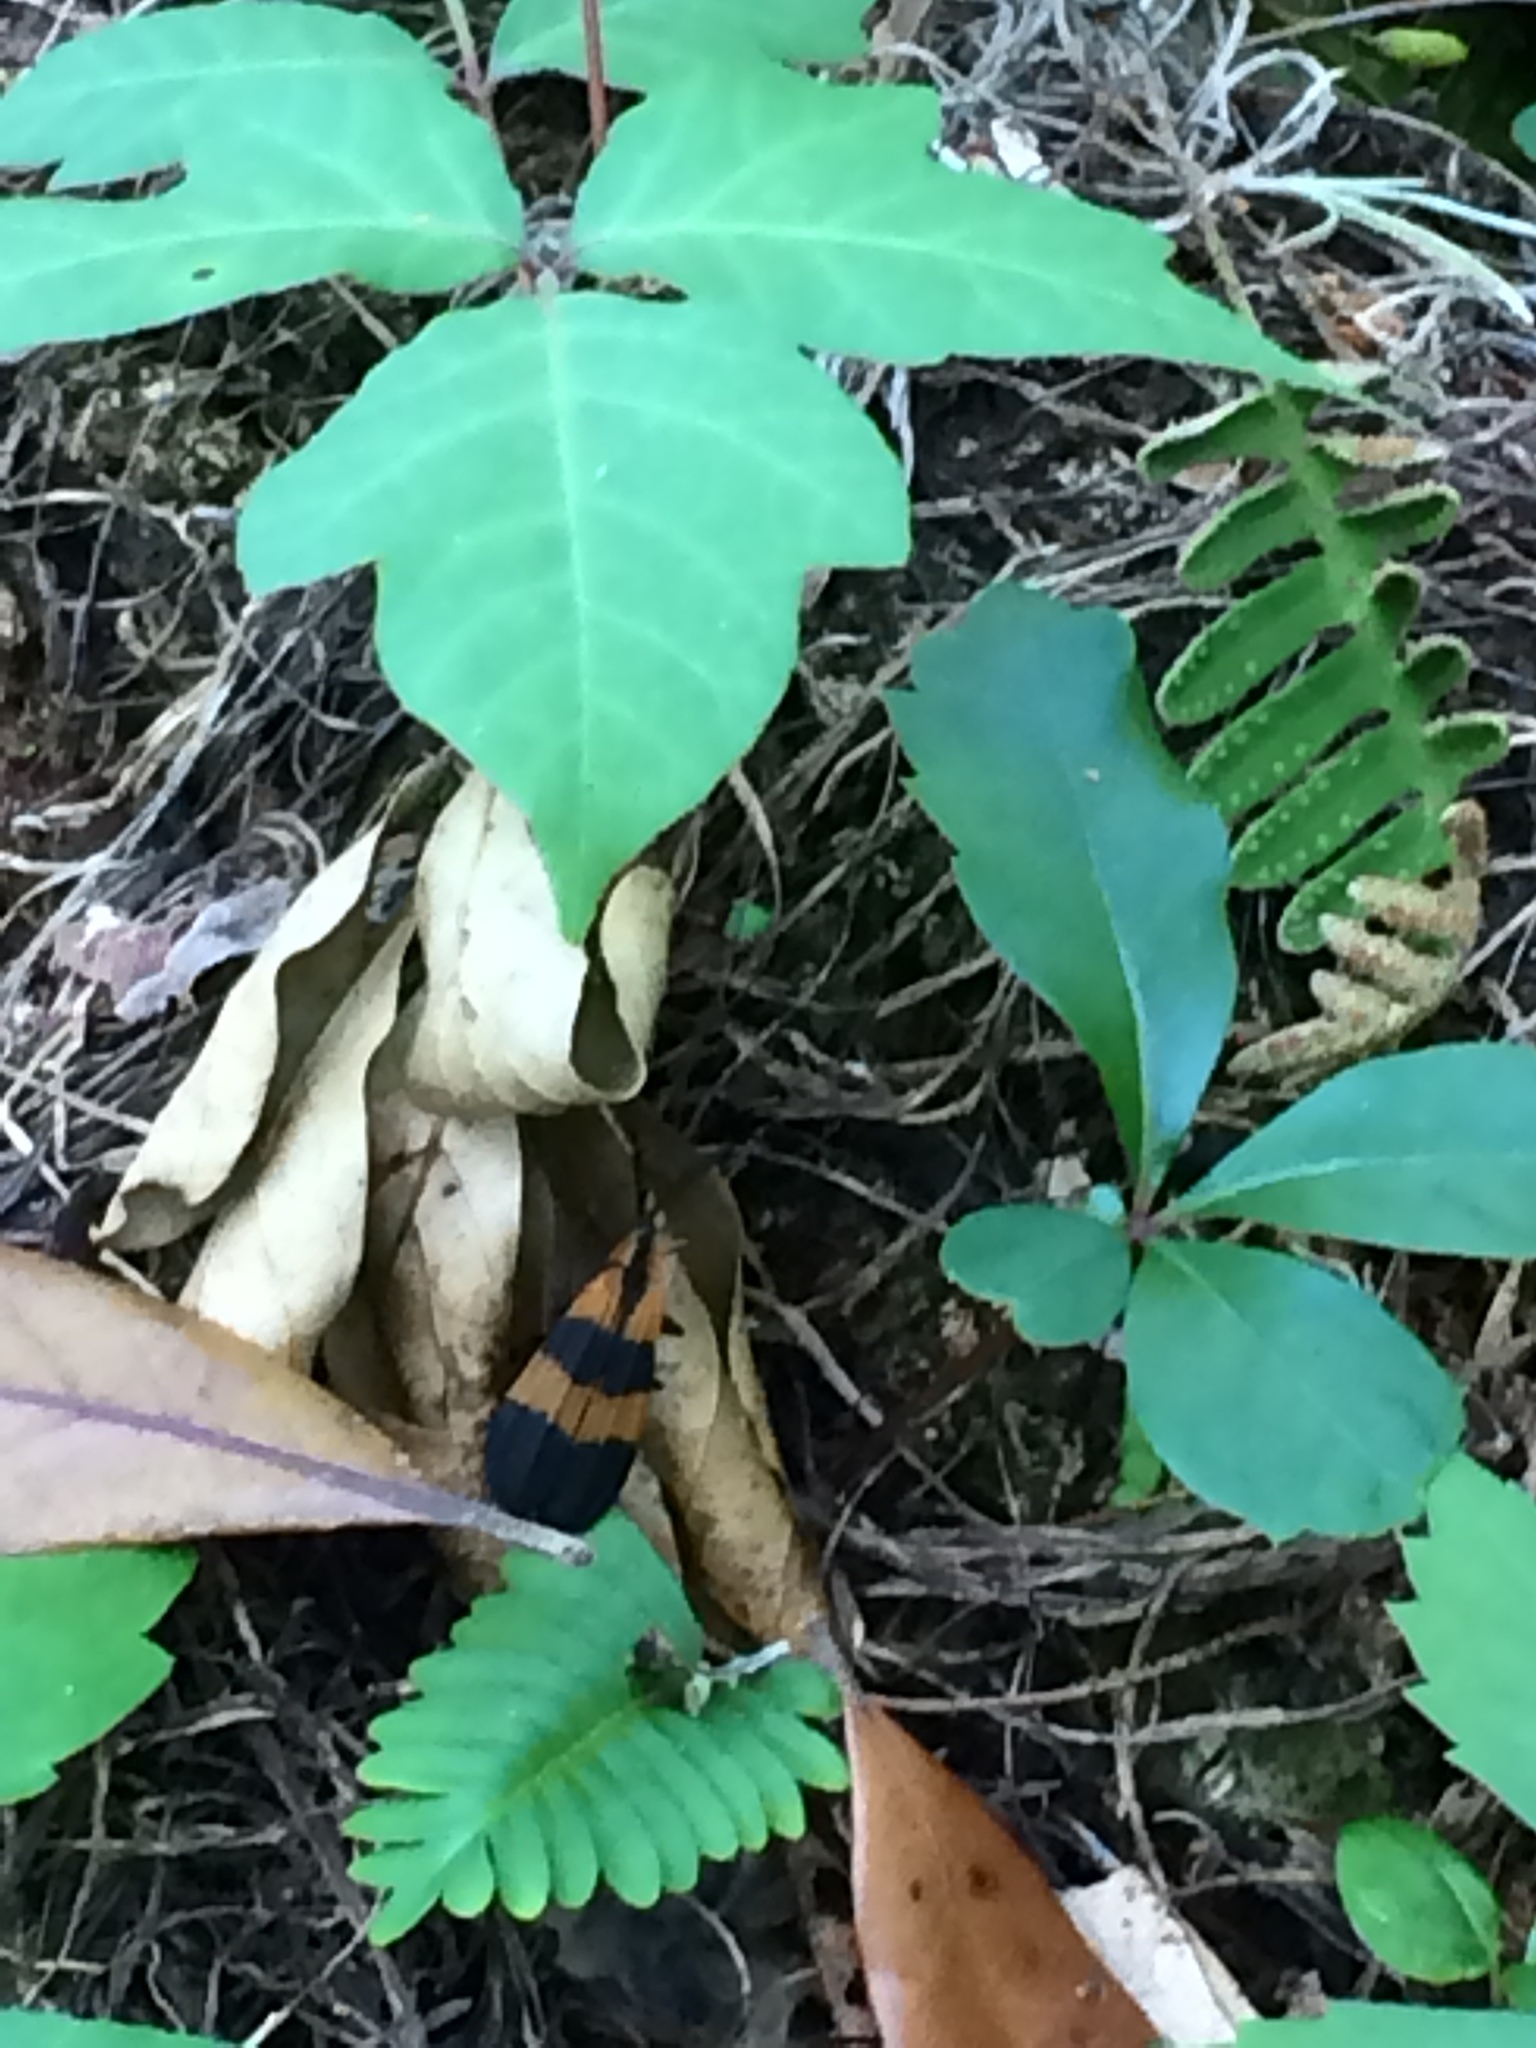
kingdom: Animalia
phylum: Arthropoda
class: Insecta
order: Coleoptera
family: Lycidae
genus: Calopteron
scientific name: Calopteron reticulatum
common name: Banded net-winged beetle
